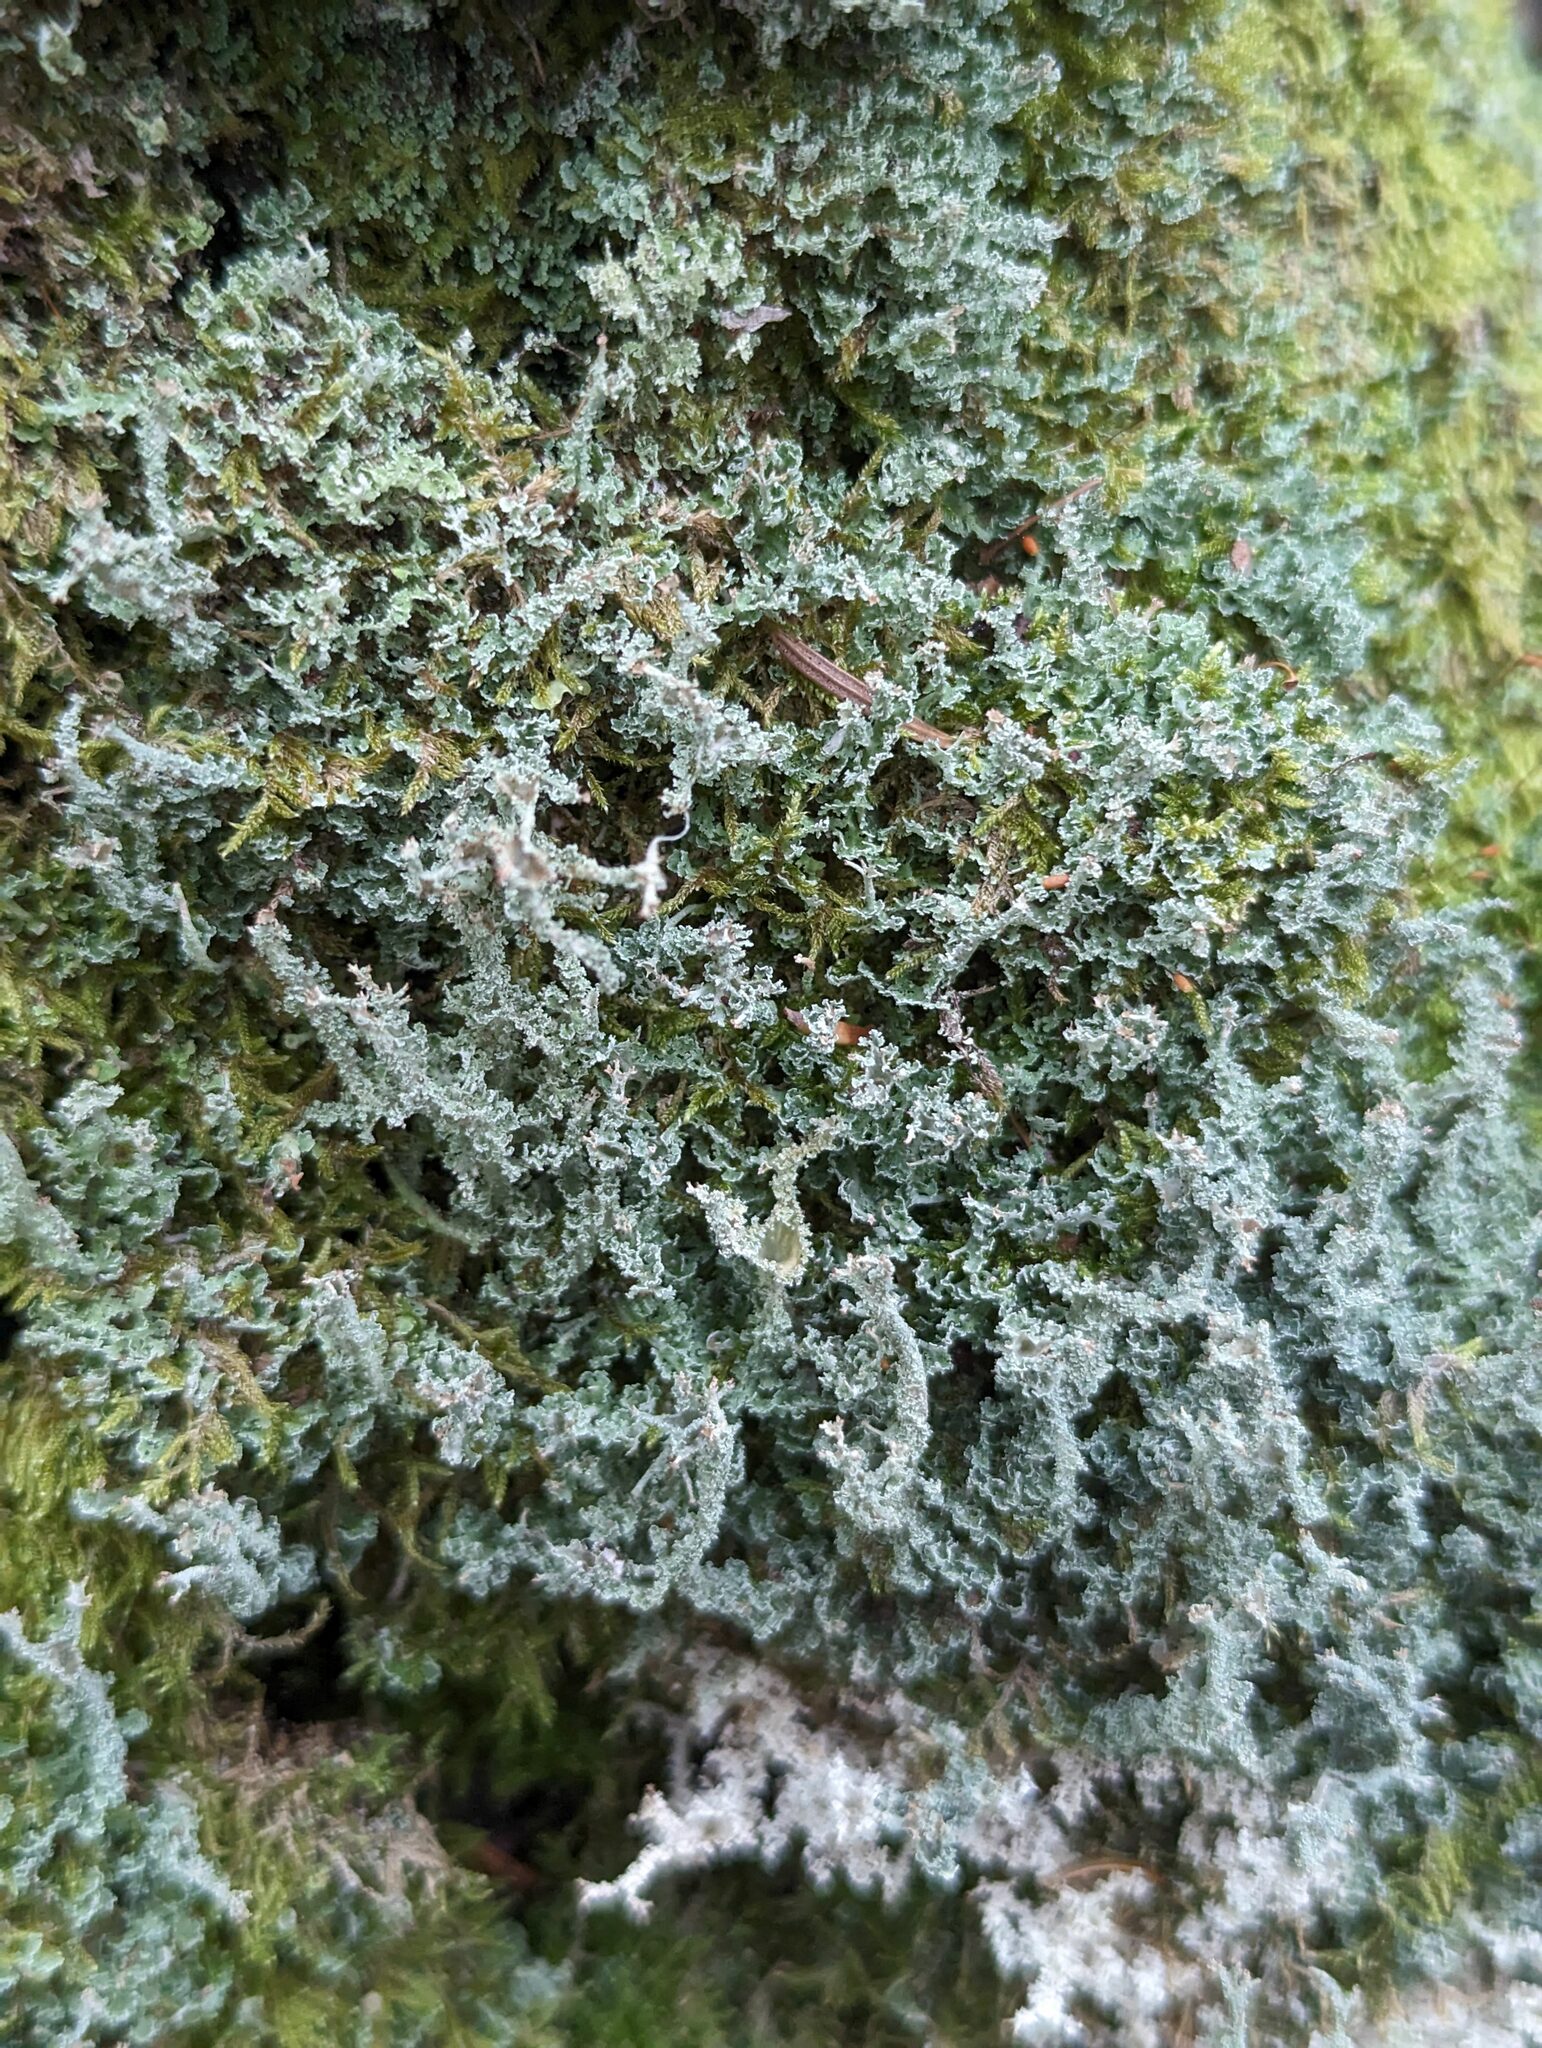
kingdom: Fungi
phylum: Ascomycota
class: Lecanoromycetes
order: Lecanorales
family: Cladoniaceae
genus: Cladonia
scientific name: Cladonia squamosa
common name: Dragon horn
